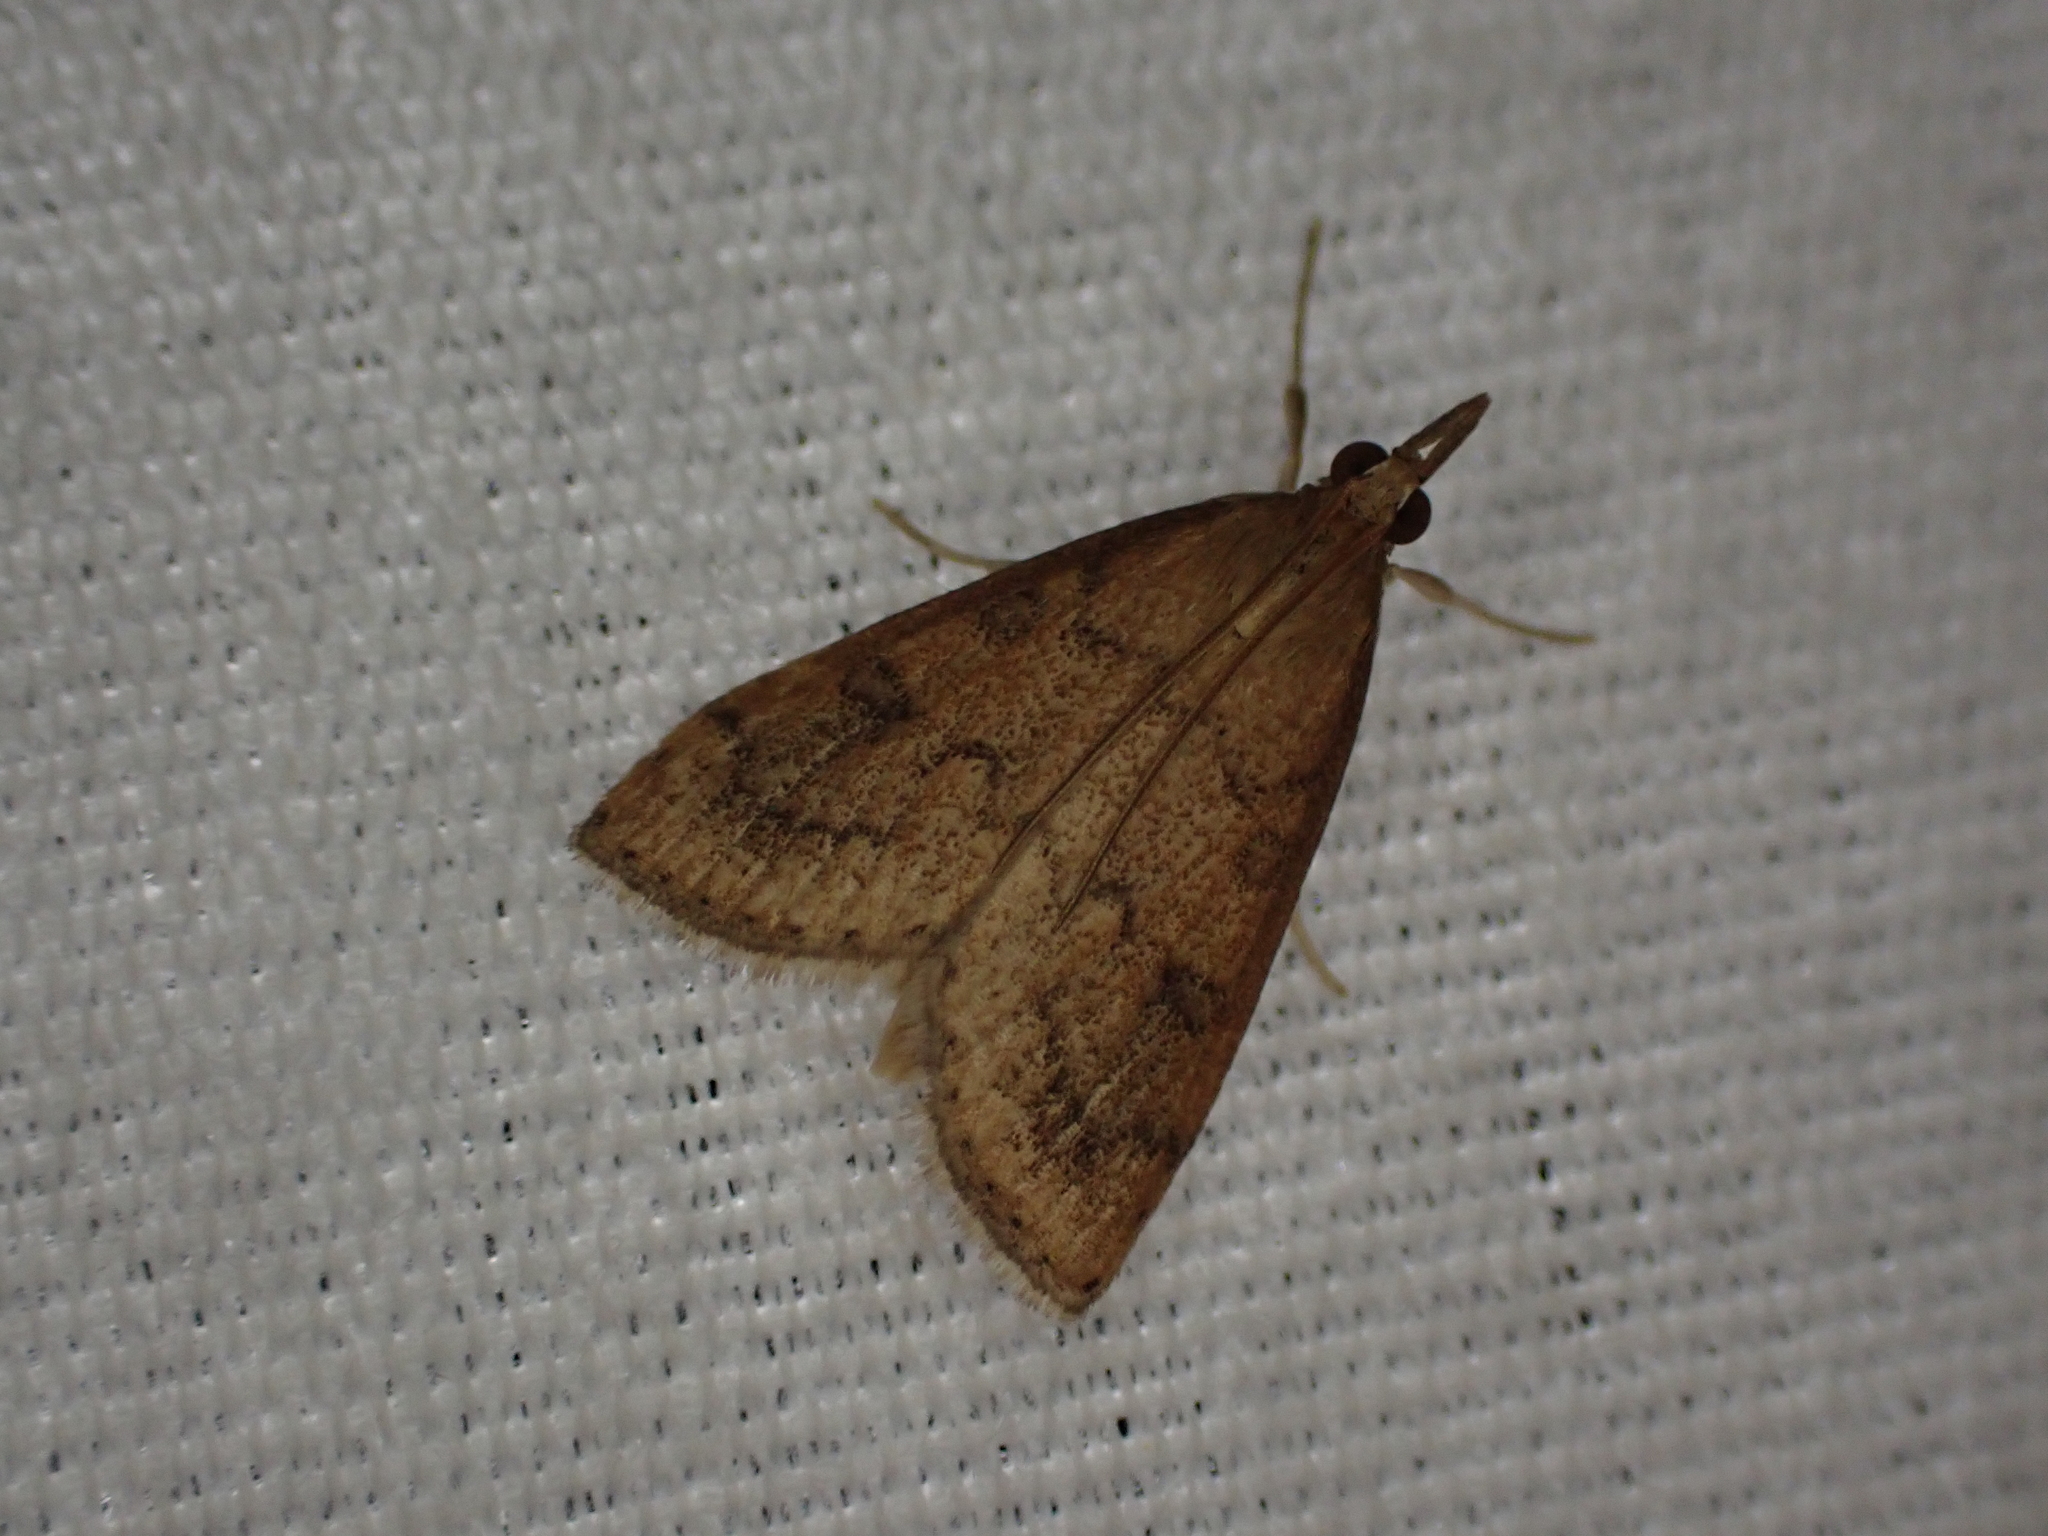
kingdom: Animalia
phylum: Arthropoda
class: Insecta
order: Lepidoptera
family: Crambidae
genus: Udea
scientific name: Udea rubigalis
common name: Celery leaftier moth
